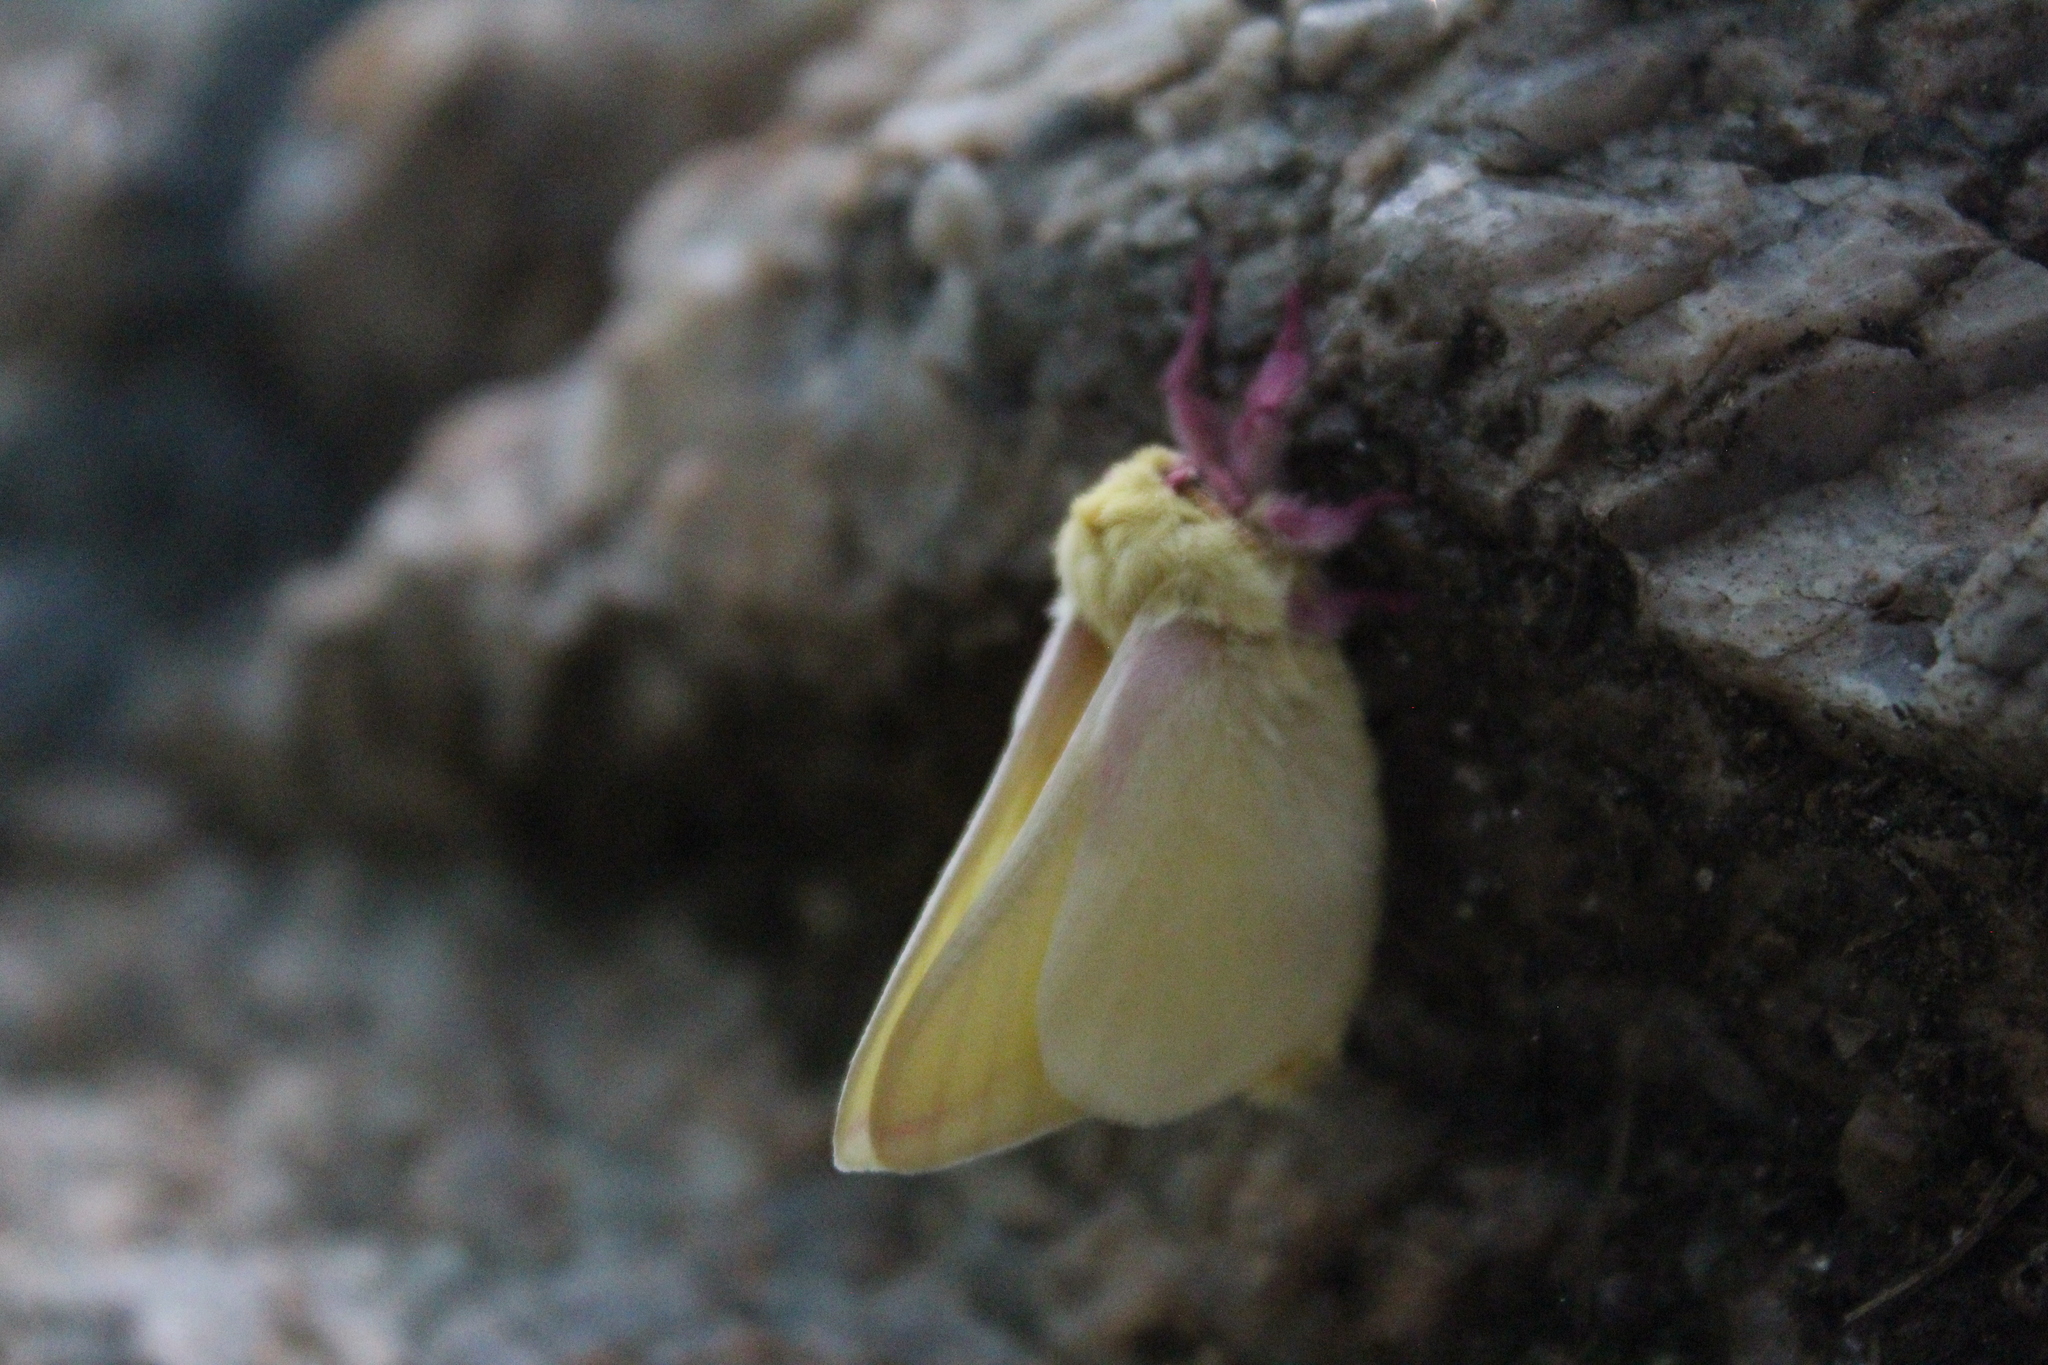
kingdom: Animalia
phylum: Arthropoda
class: Insecta
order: Lepidoptera
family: Saturniidae
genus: Dryocampa
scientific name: Dryocampa rubicunda
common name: Rosy maple moth
